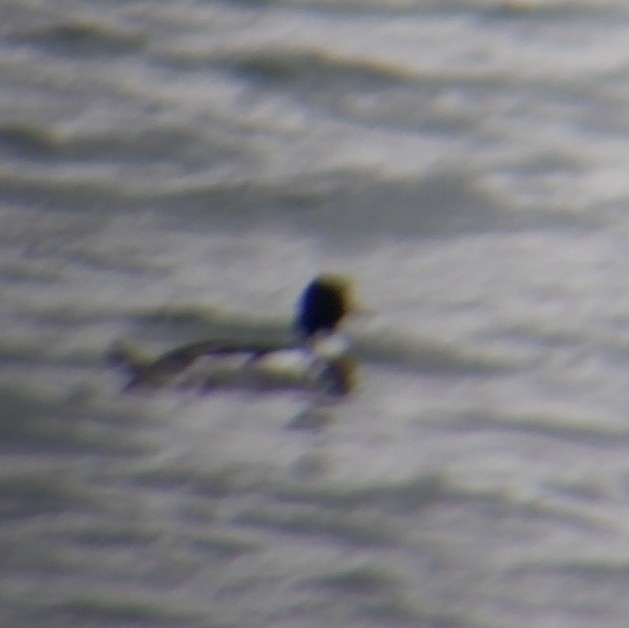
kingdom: Animalia
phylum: Chordata
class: Aves
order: Anseriformes
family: Anatidae
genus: Mergus
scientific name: Mergus serrator
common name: Red-breasted merganser
